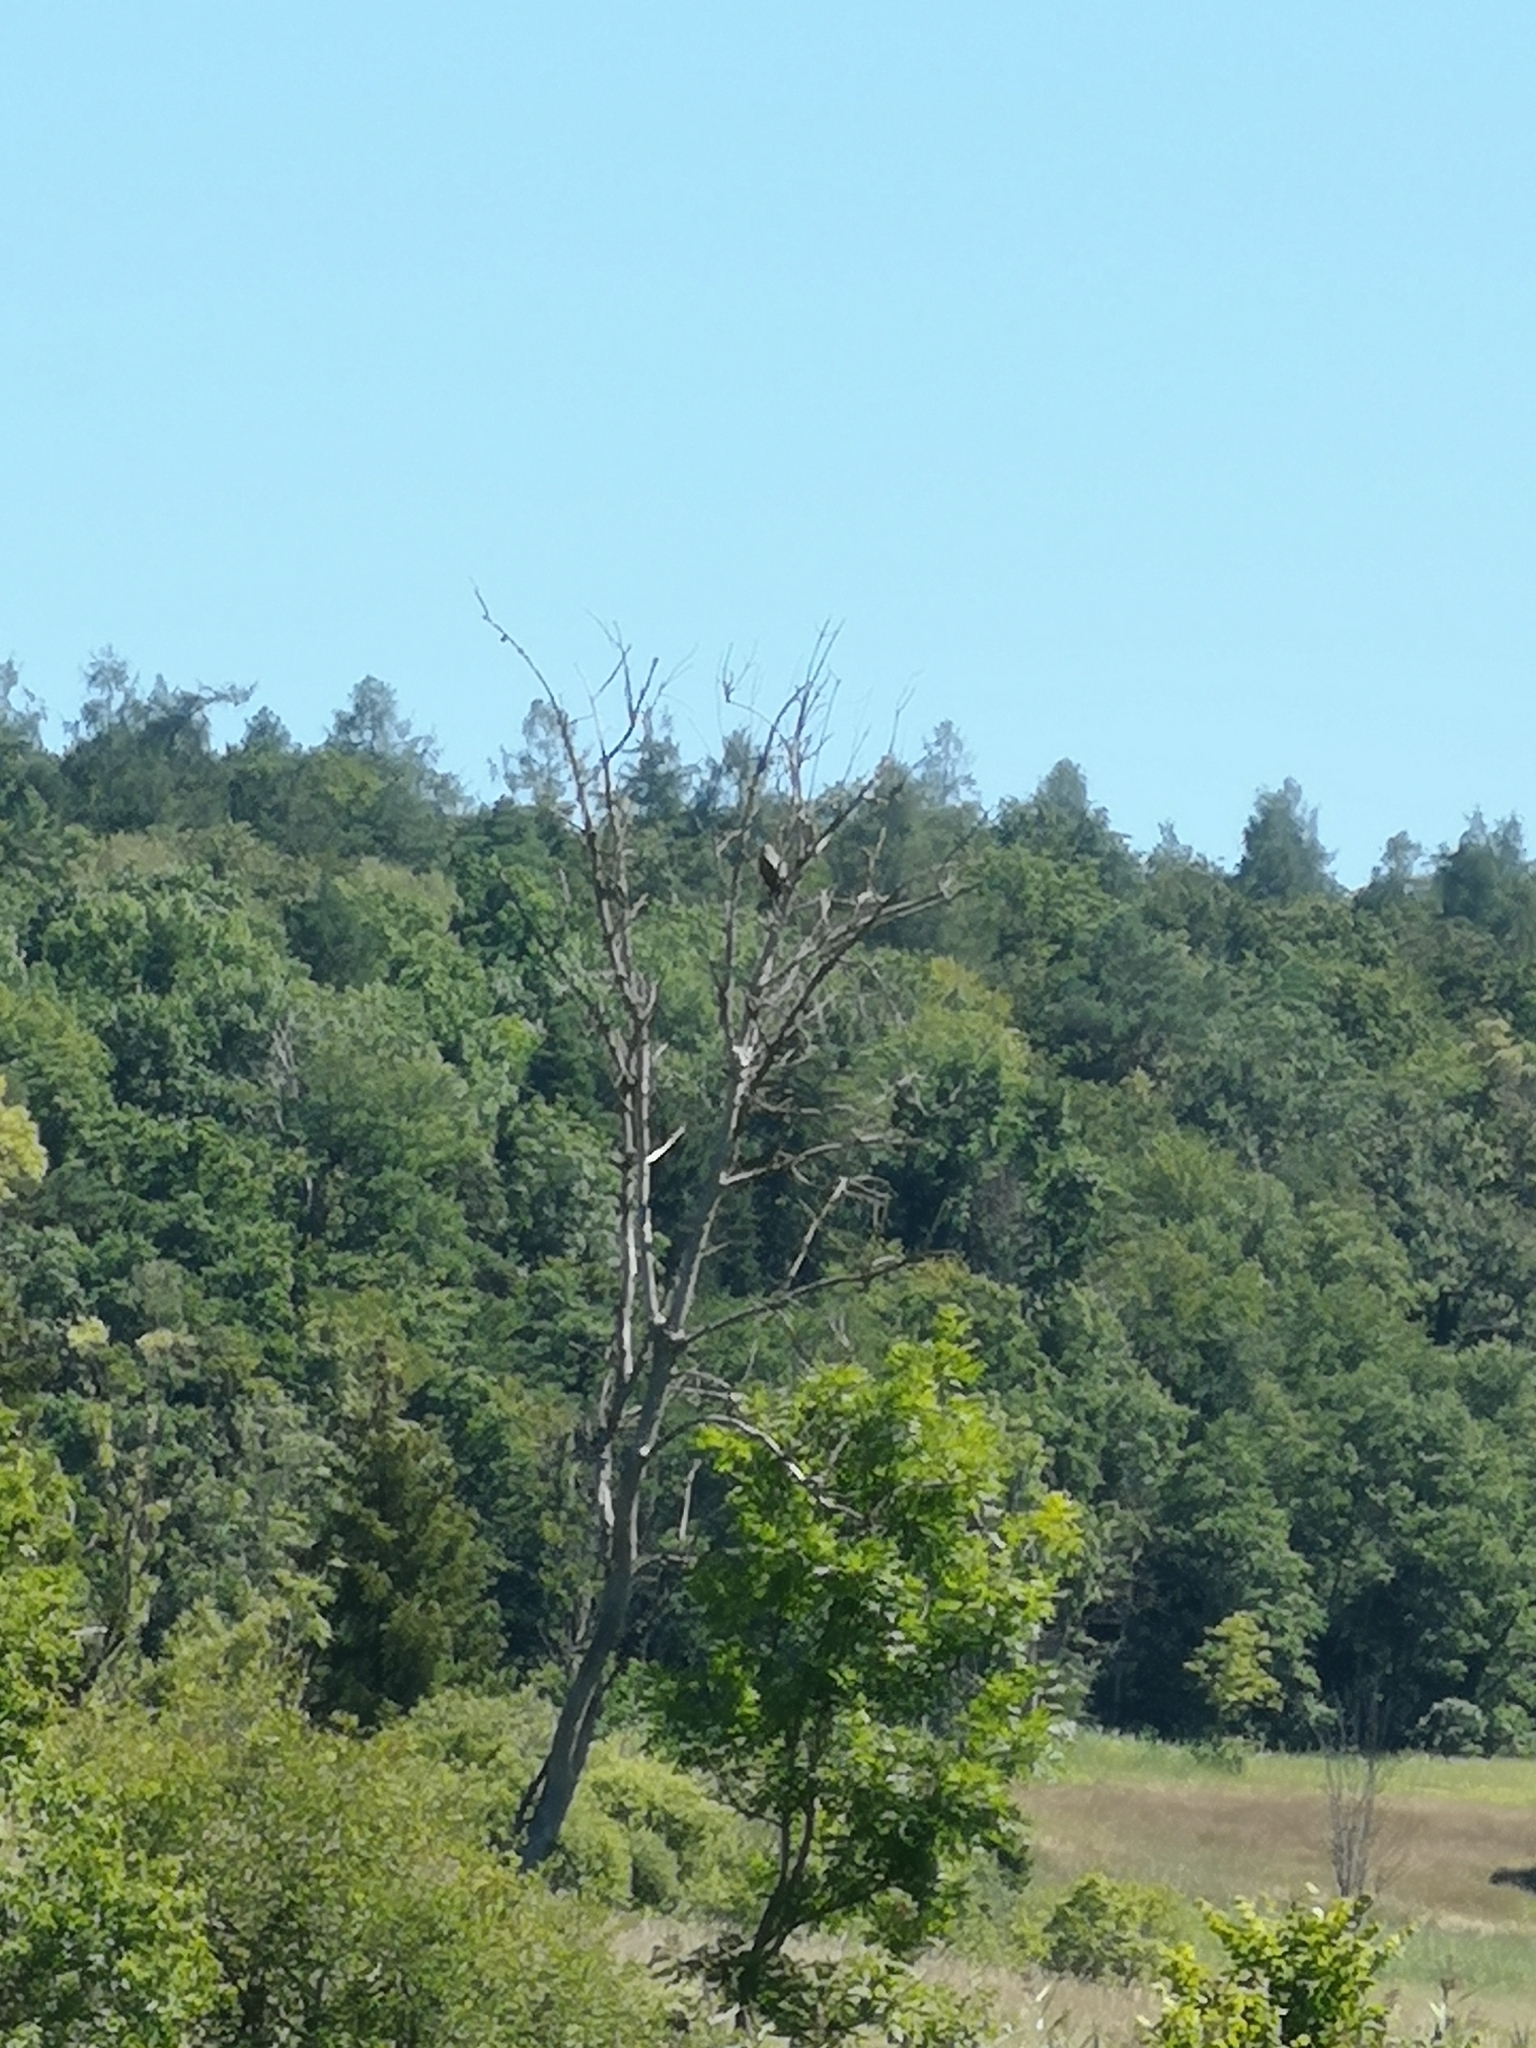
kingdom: Animalia
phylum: Chordata
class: Aves
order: Accipitriformes
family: Accipitridae
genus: Buteo
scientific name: Buteo buteo
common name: Common buzzard
